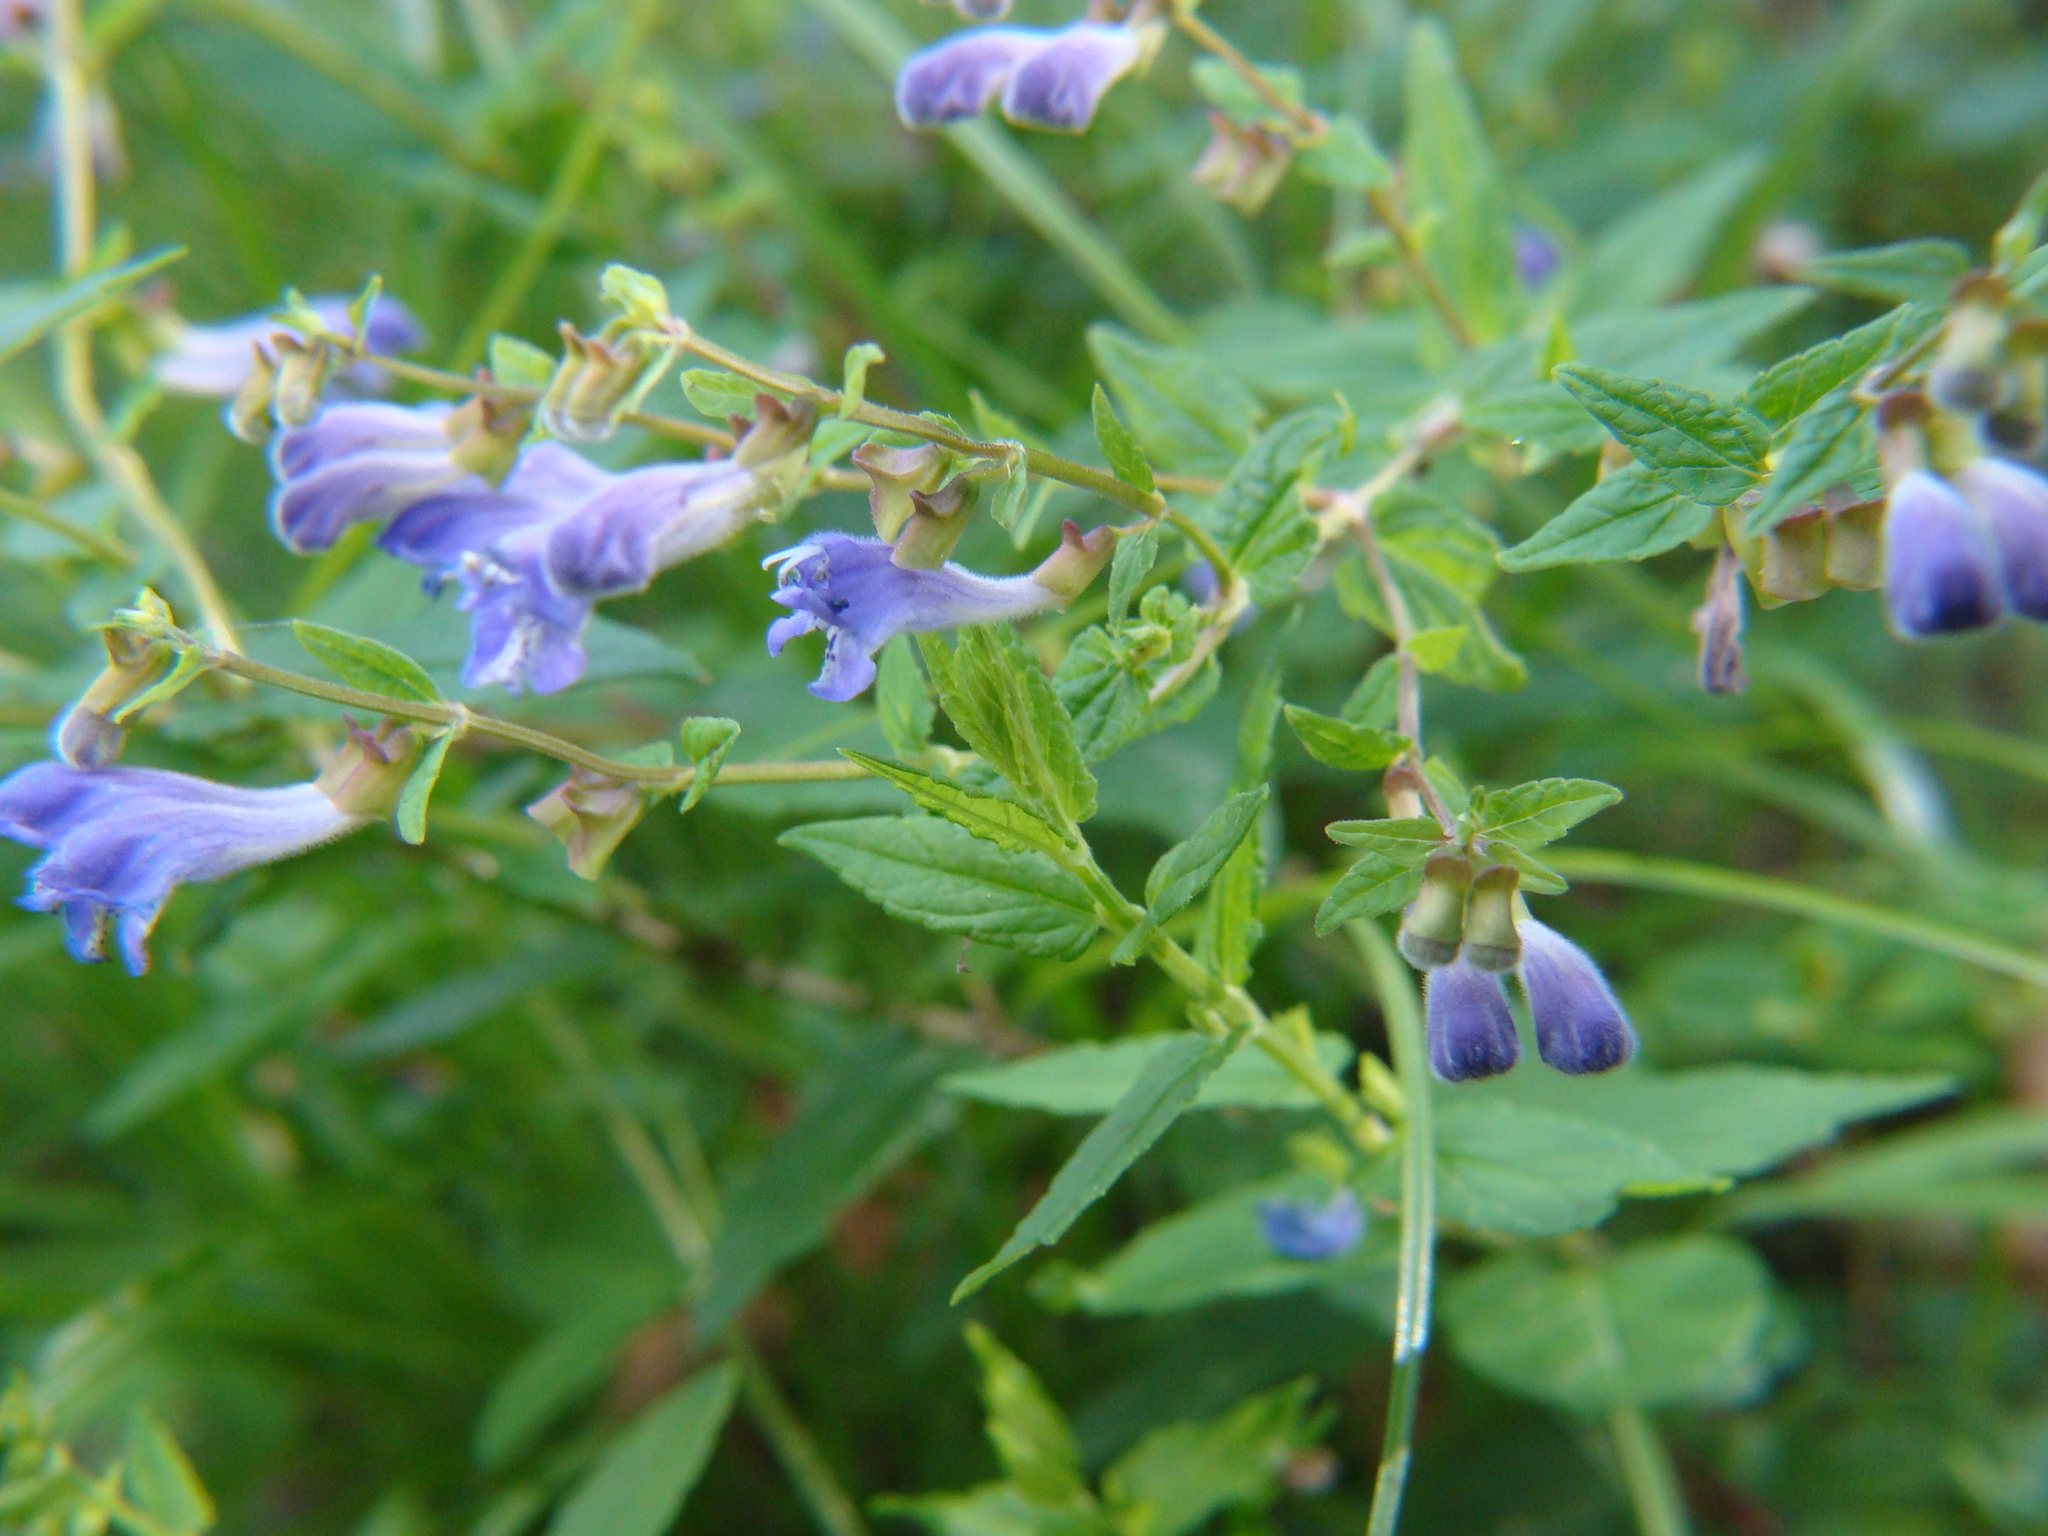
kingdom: Plantae
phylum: Tracheophyta
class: Magnoliopsida
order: Lamiales
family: Lamiaceae
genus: Scutellaria
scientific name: Scutellaria galericulata
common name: Skullcap
